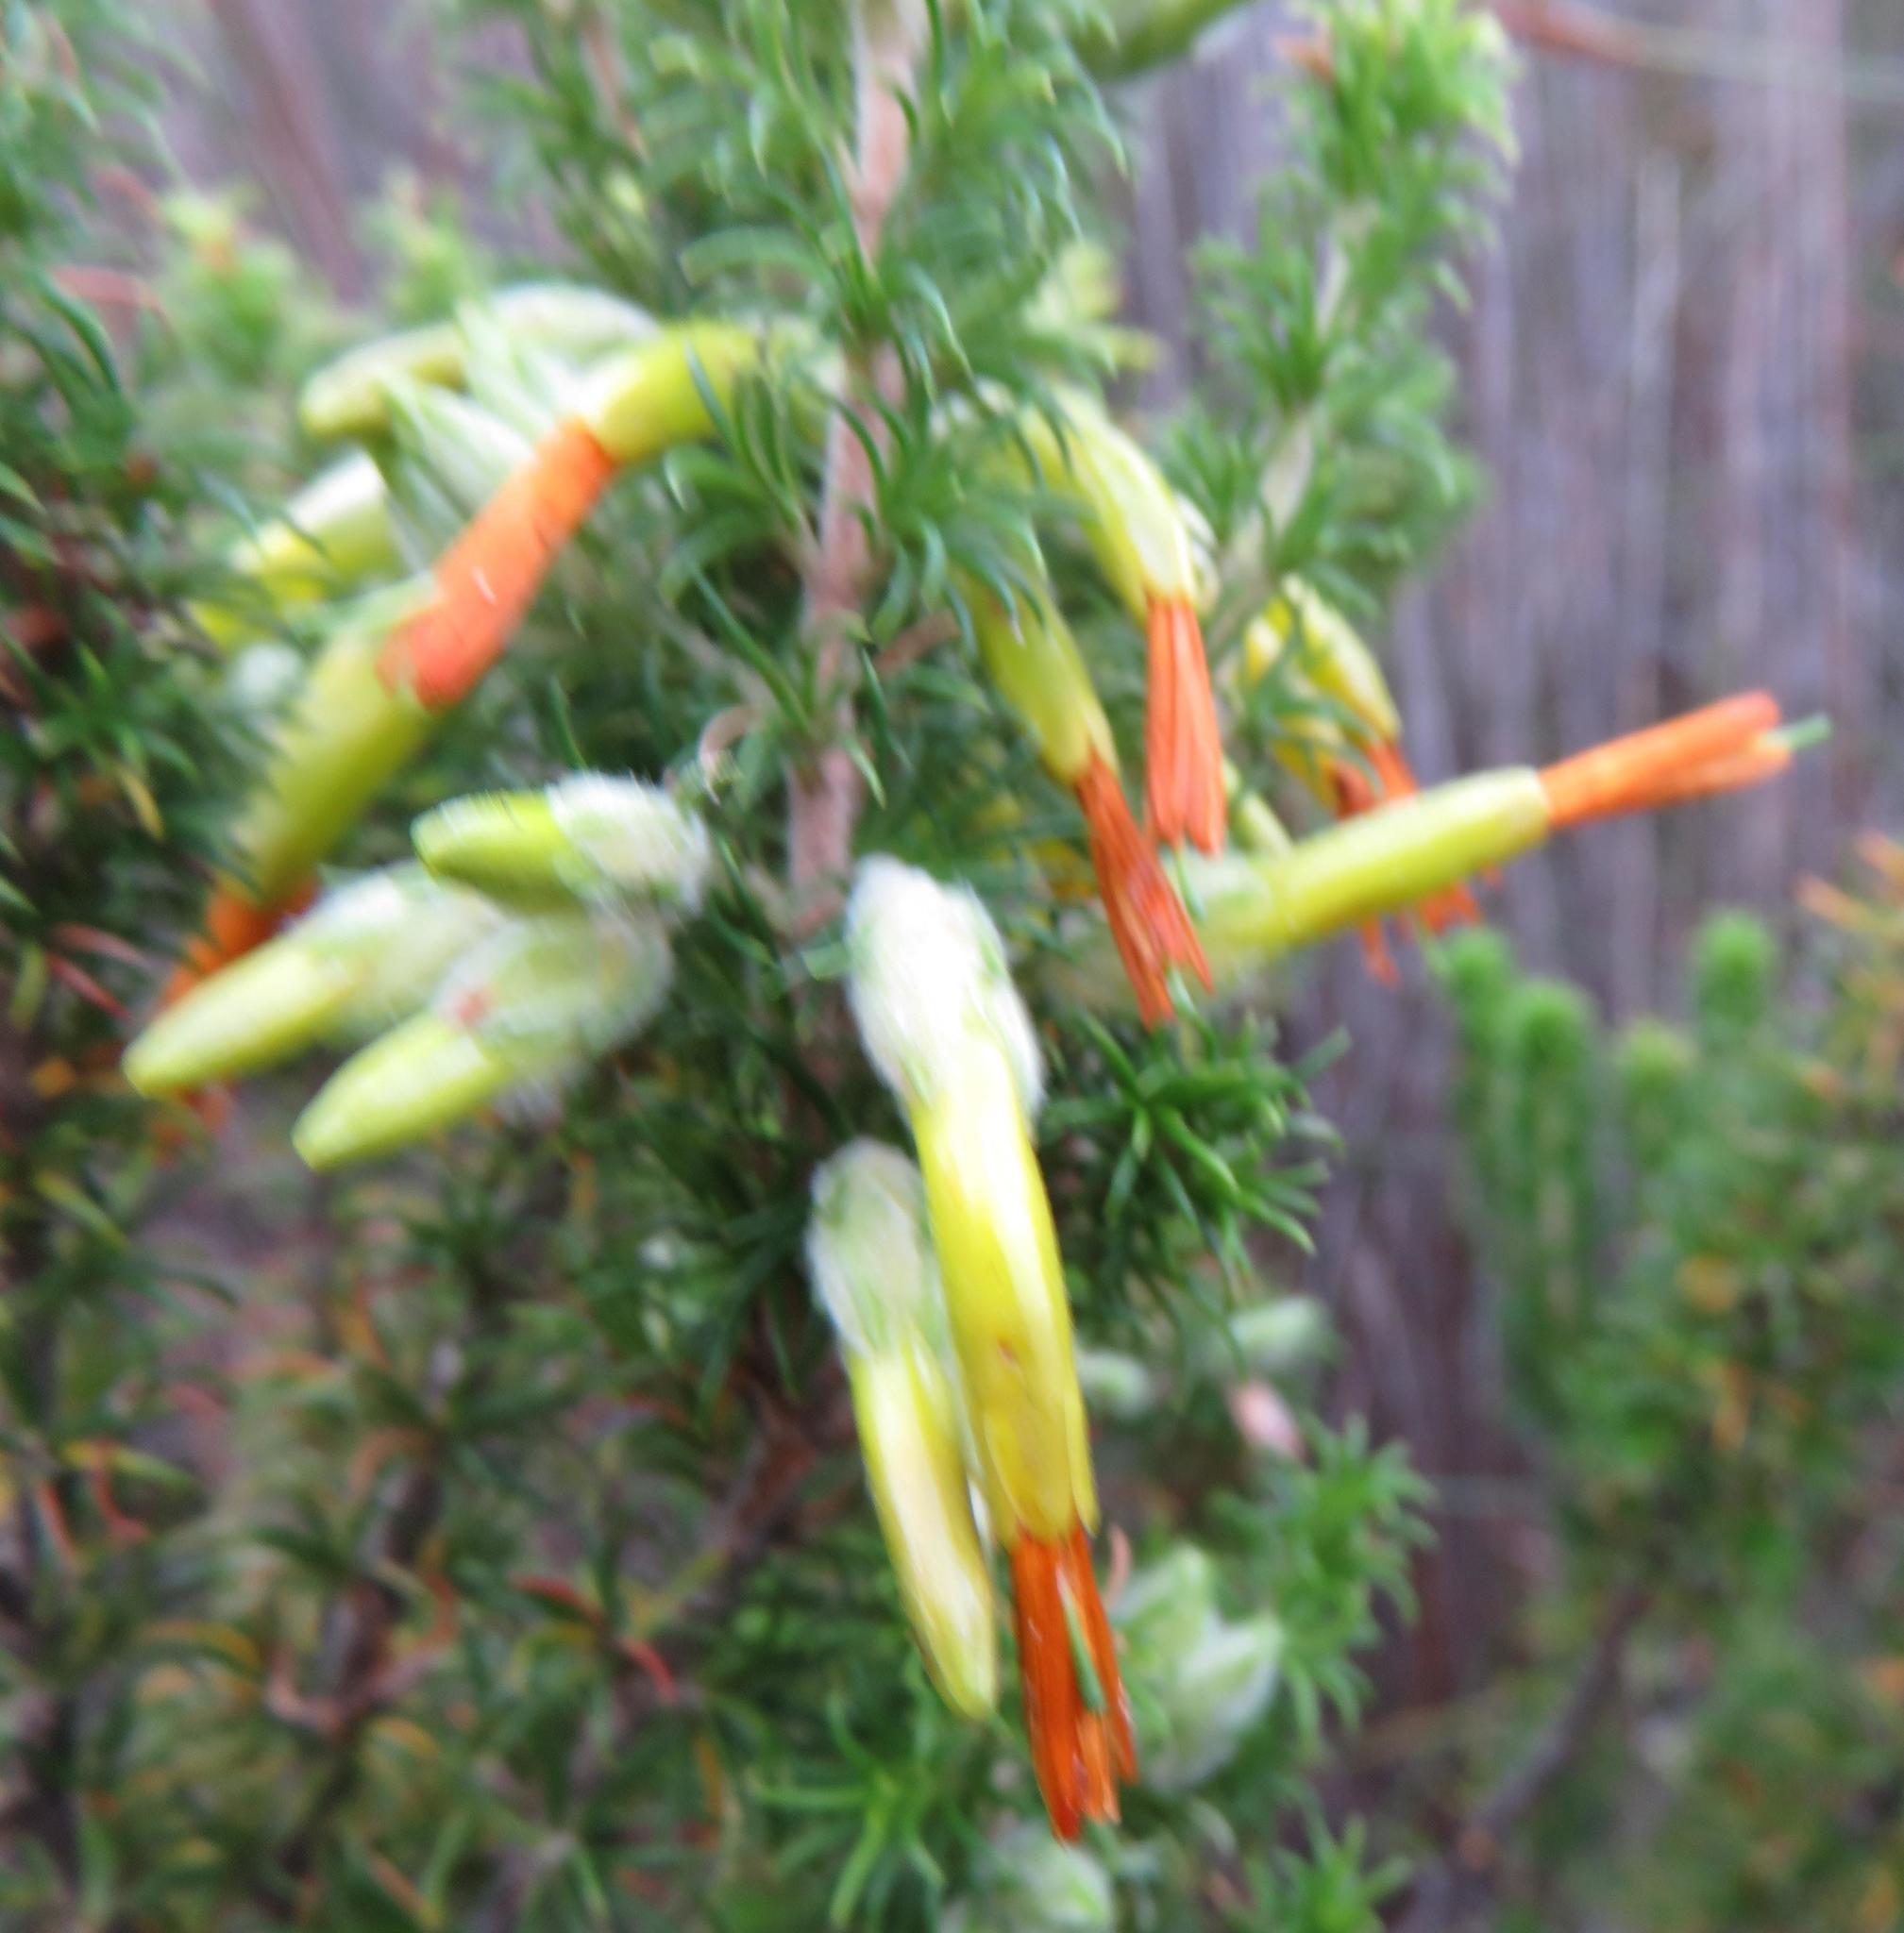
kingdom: Plantae
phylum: Tracheophyta
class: Magnoliopsida
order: Ericales
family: Ericaceae
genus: Erica
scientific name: Erica coccinea
